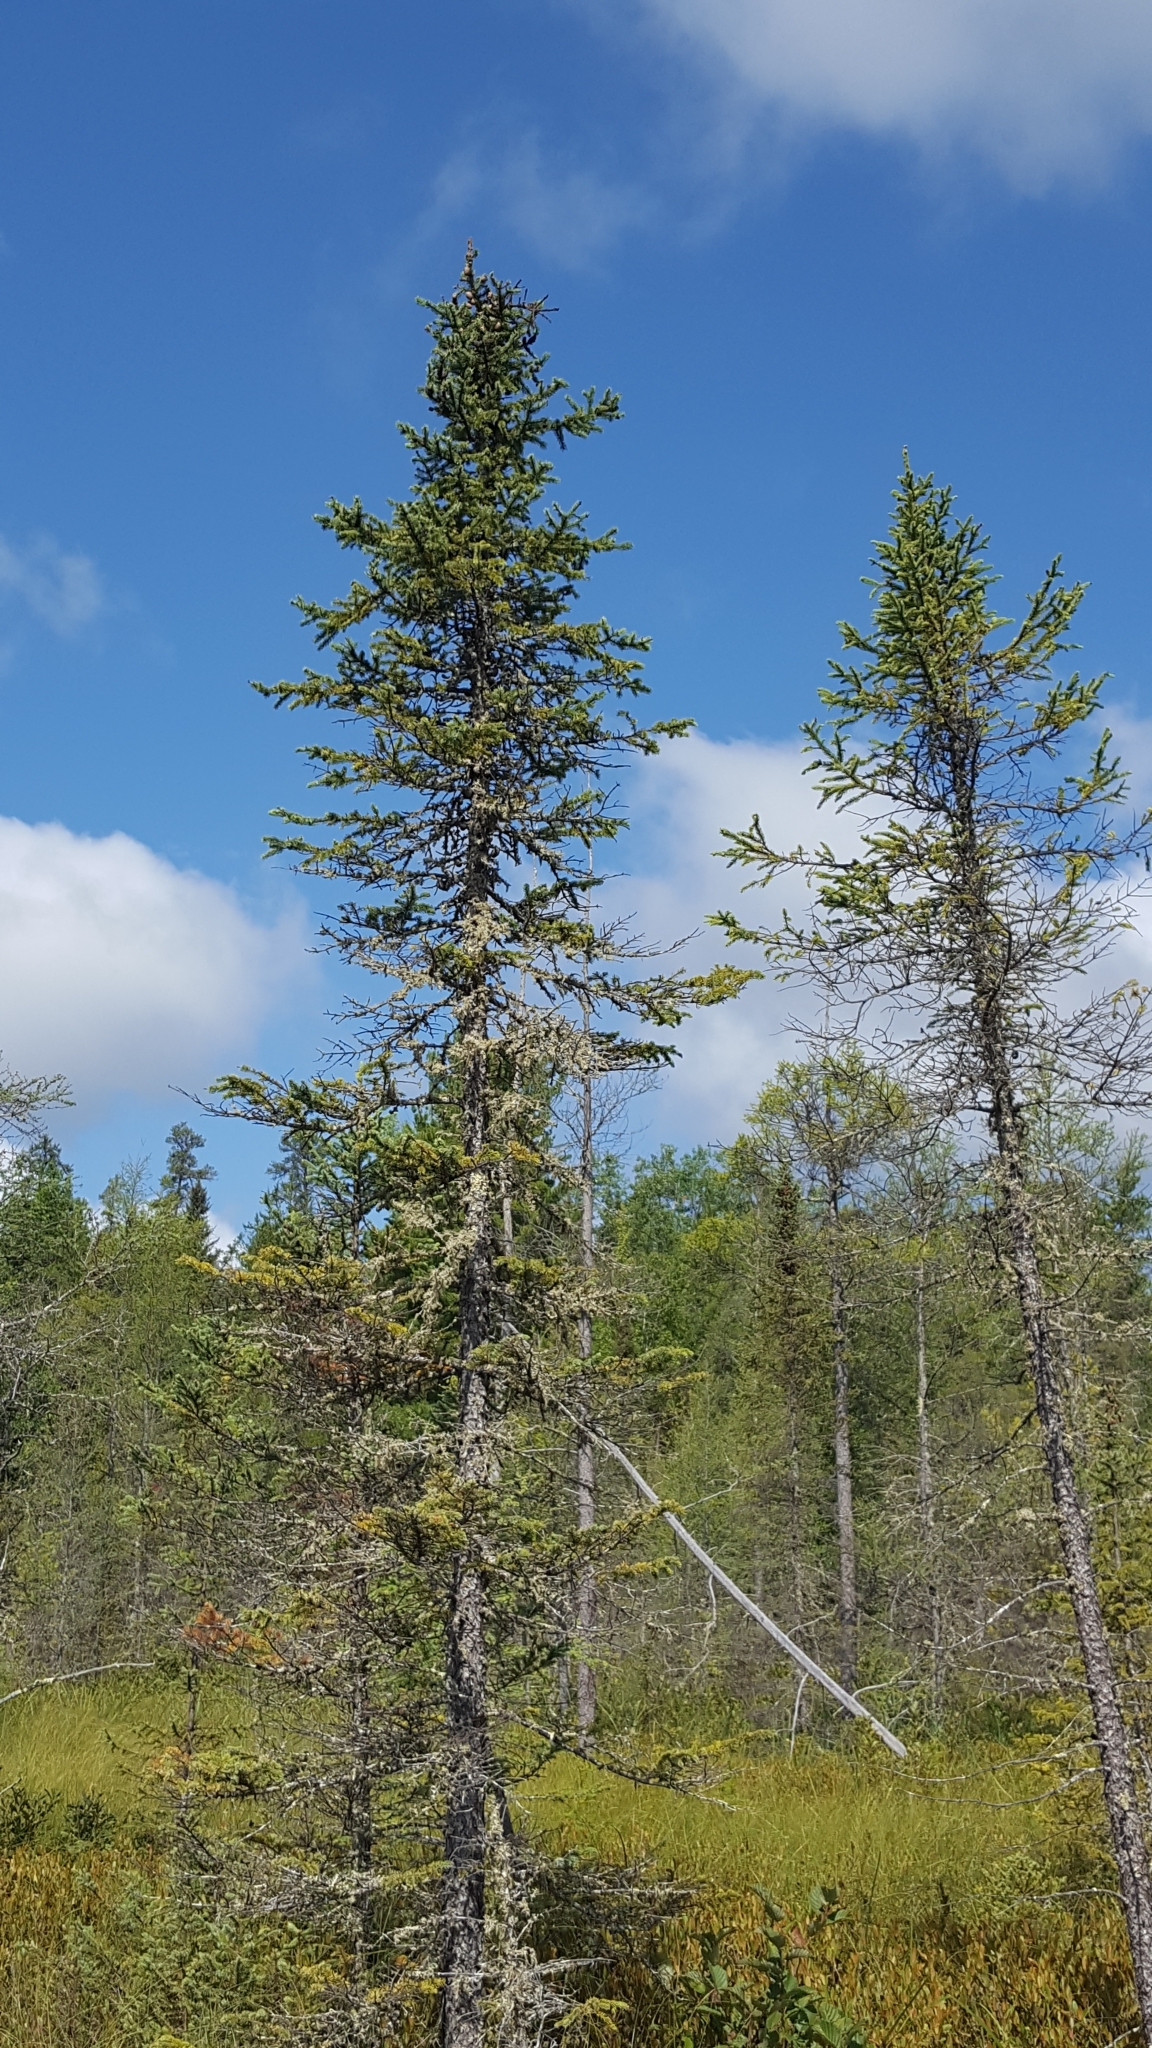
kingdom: Plantae
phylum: Tracheophyta
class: Pinopsida
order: Pinales
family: Pinaceae
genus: Picea
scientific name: Picea mariana
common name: Black spruce
